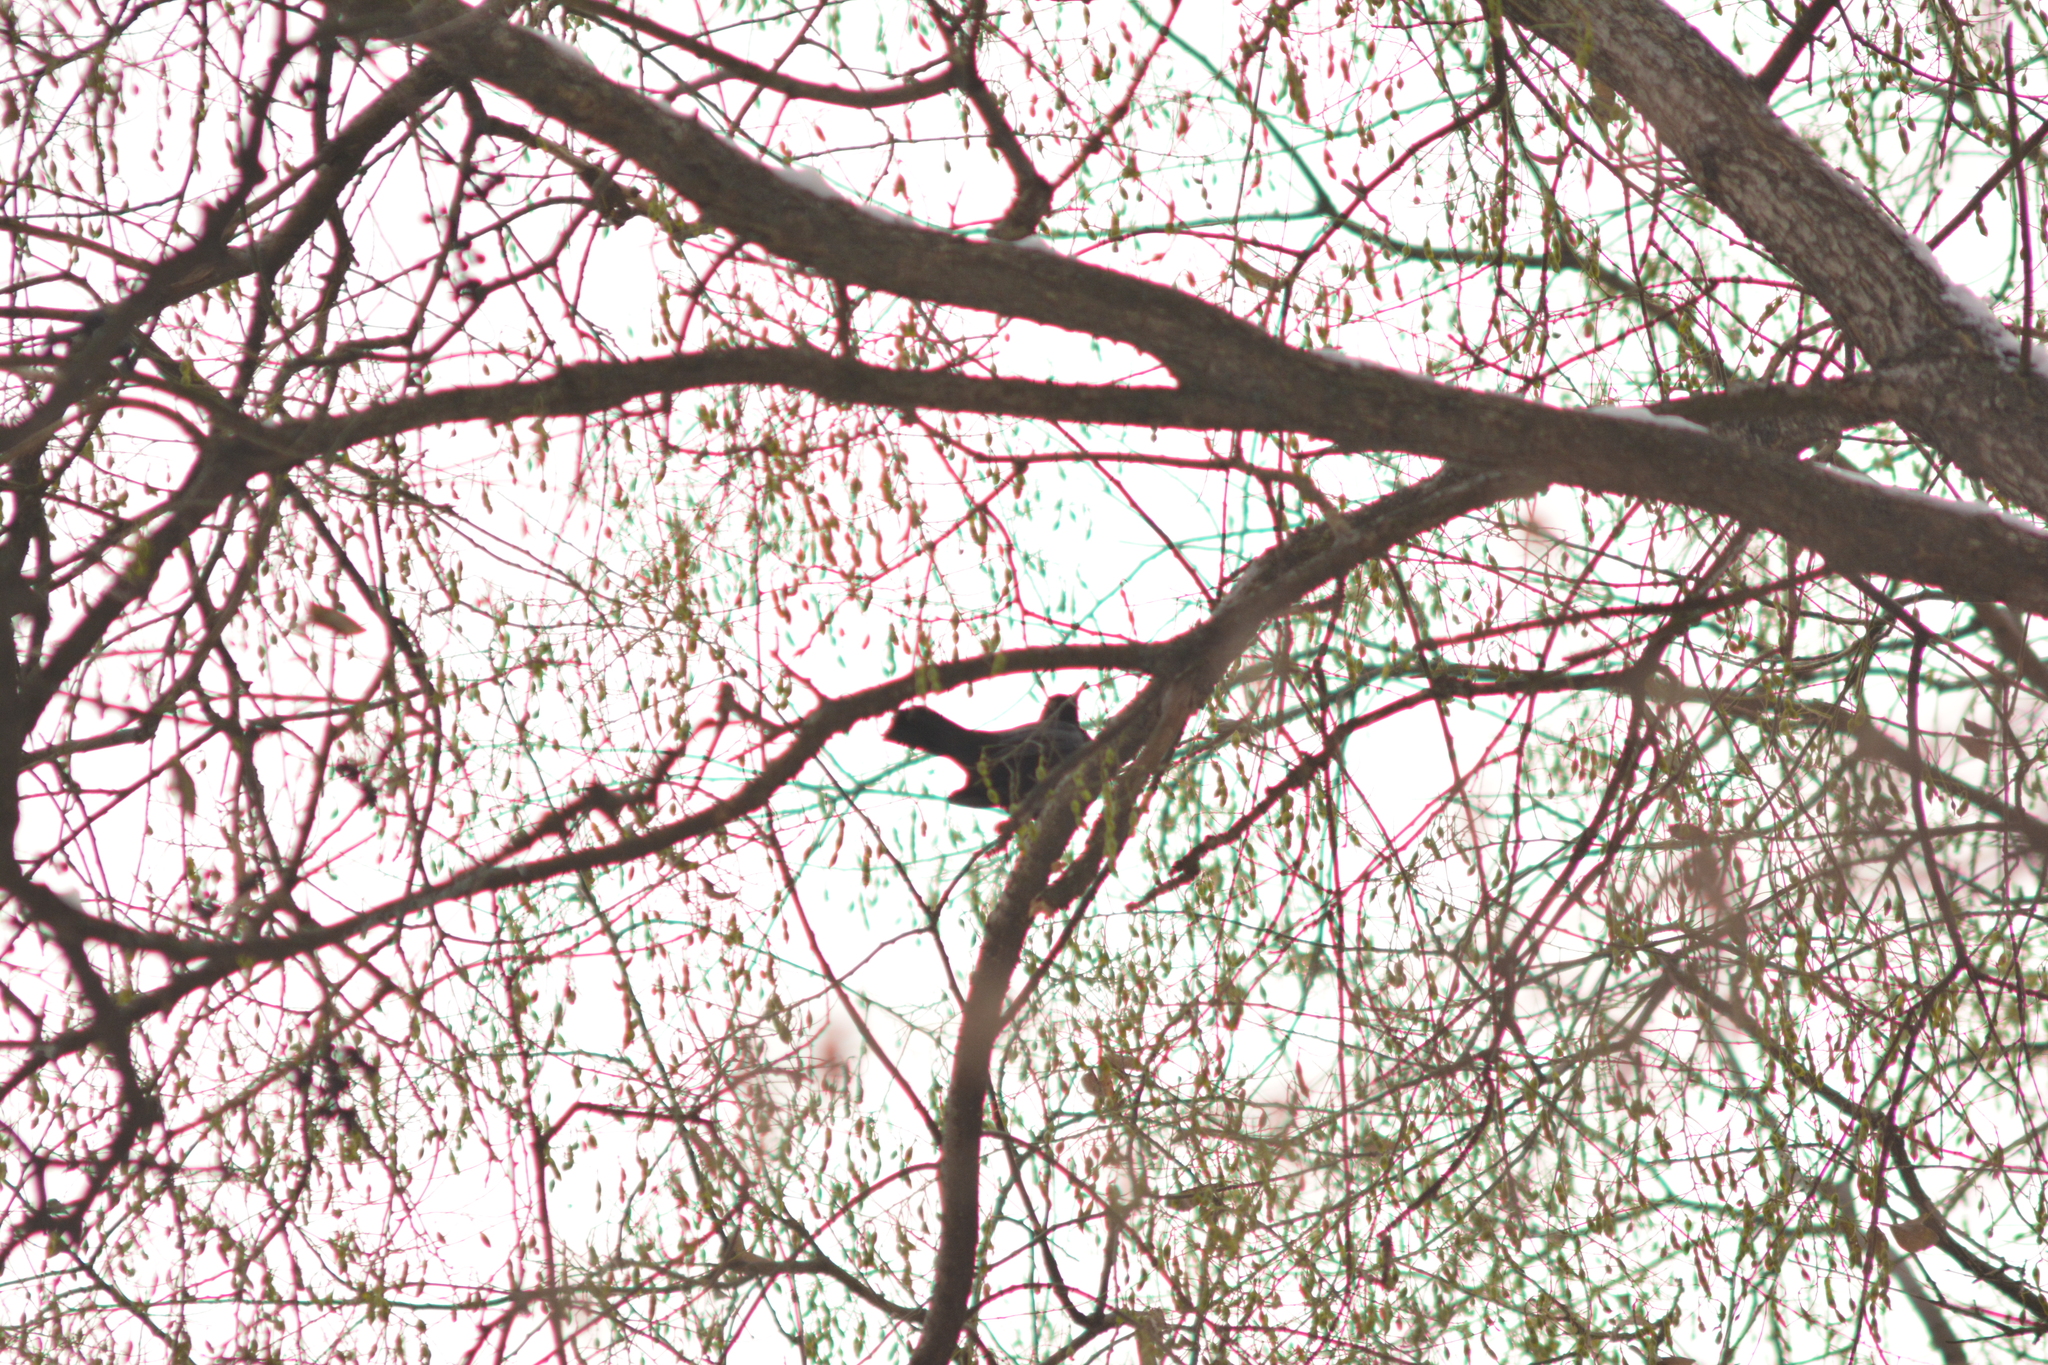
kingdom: Animalia
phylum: Chordata
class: Aves
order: Passeriformes
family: Turdidae
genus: Turdus
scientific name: Turdus merula
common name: Common blackbird
